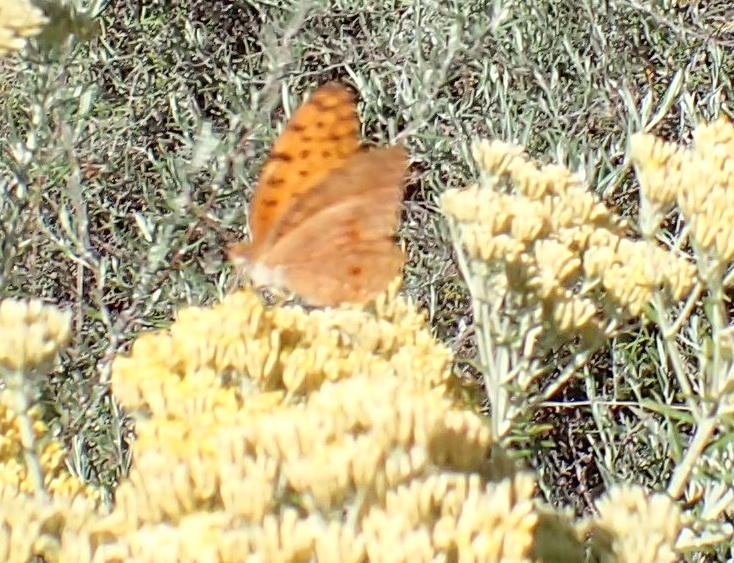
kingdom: Animalia
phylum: Arthropoda
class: Insecta
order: Lepidoptera
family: Nymphalidae
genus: Phalanta
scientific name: Phalanta phalantha
